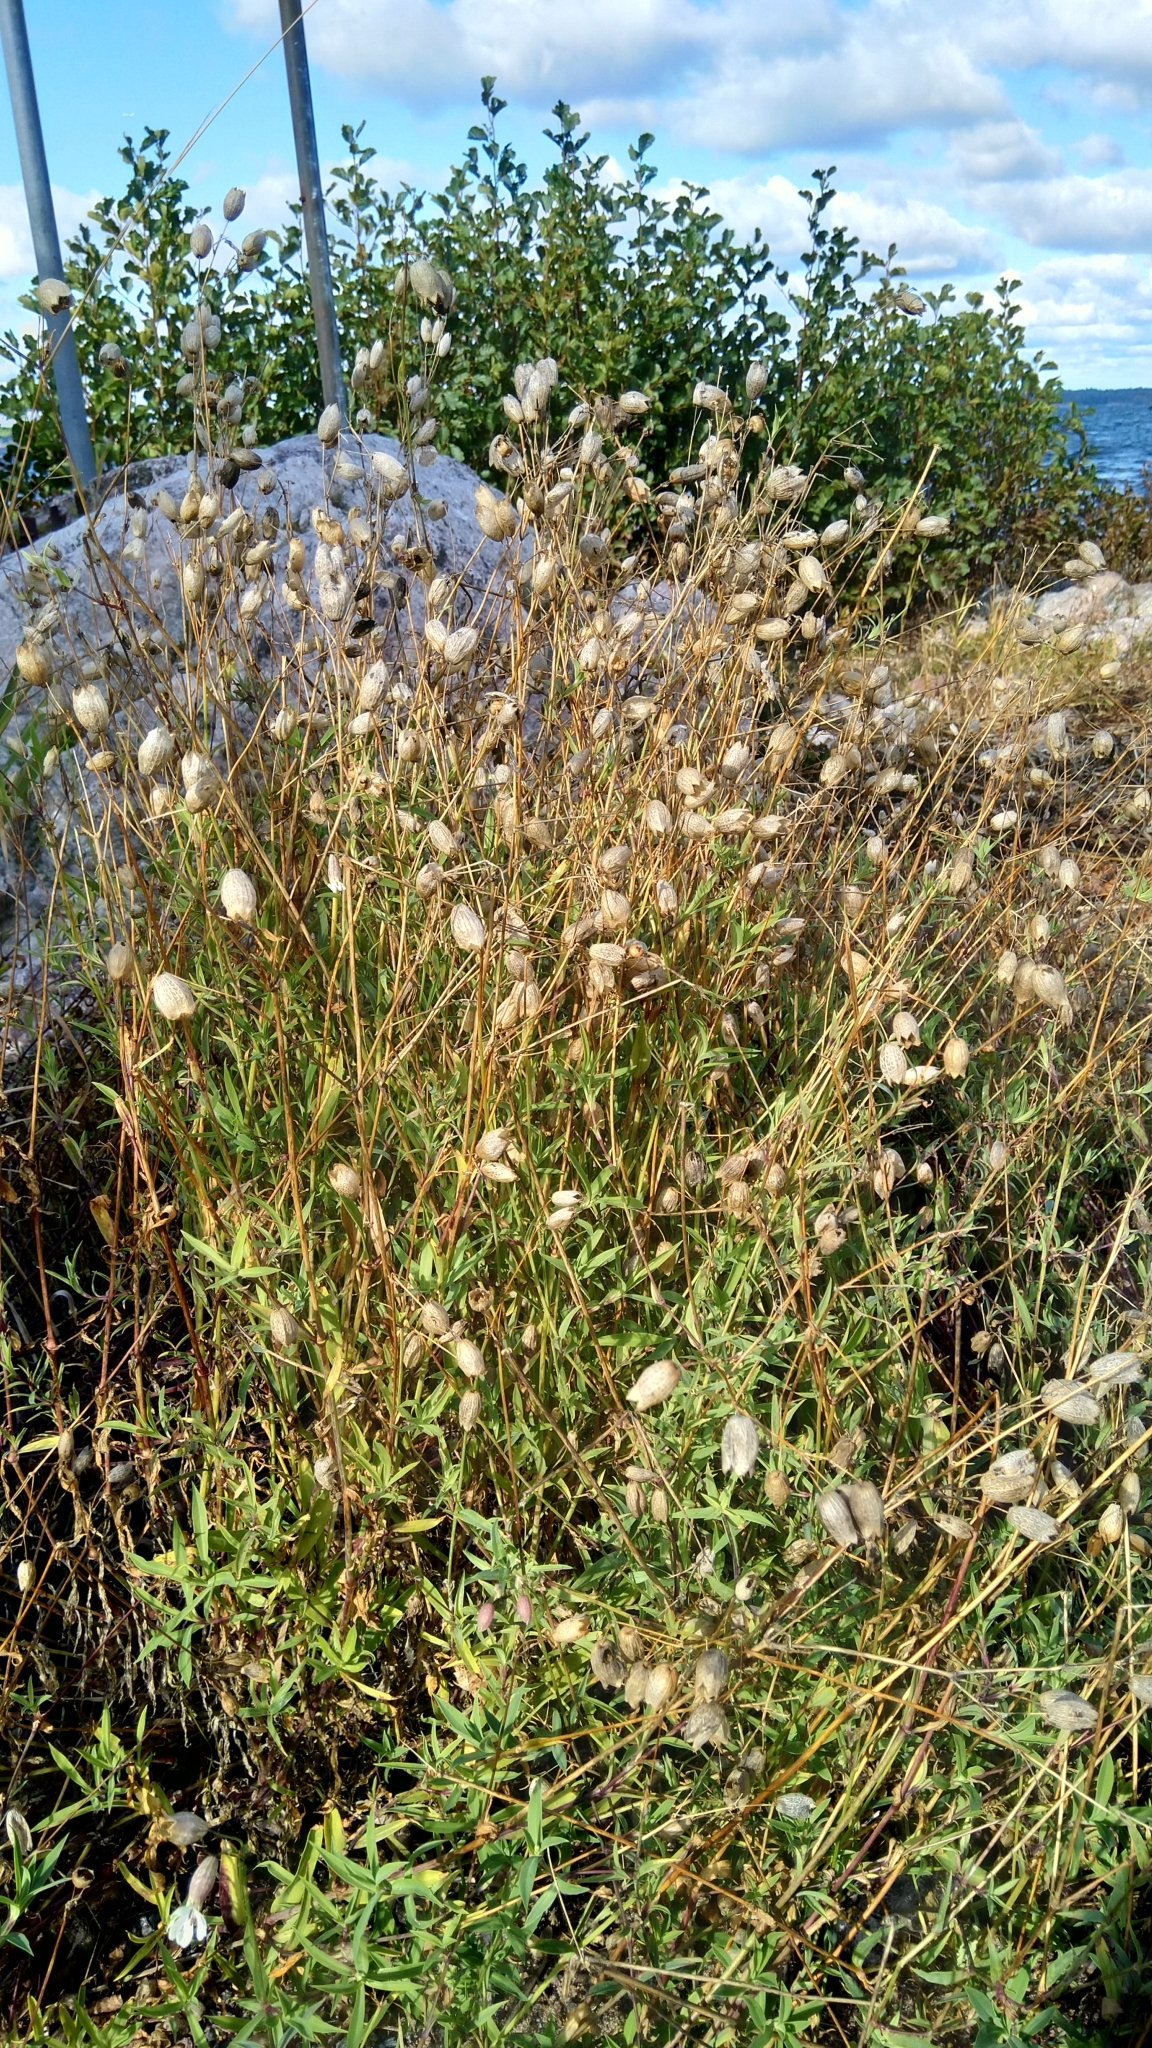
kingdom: Plantae
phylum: Tracheophyta
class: Magnoliopsida
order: Caryophyllales
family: Caryophyllaceae
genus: Silene
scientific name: Silene vulgaris
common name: Bladder campion
